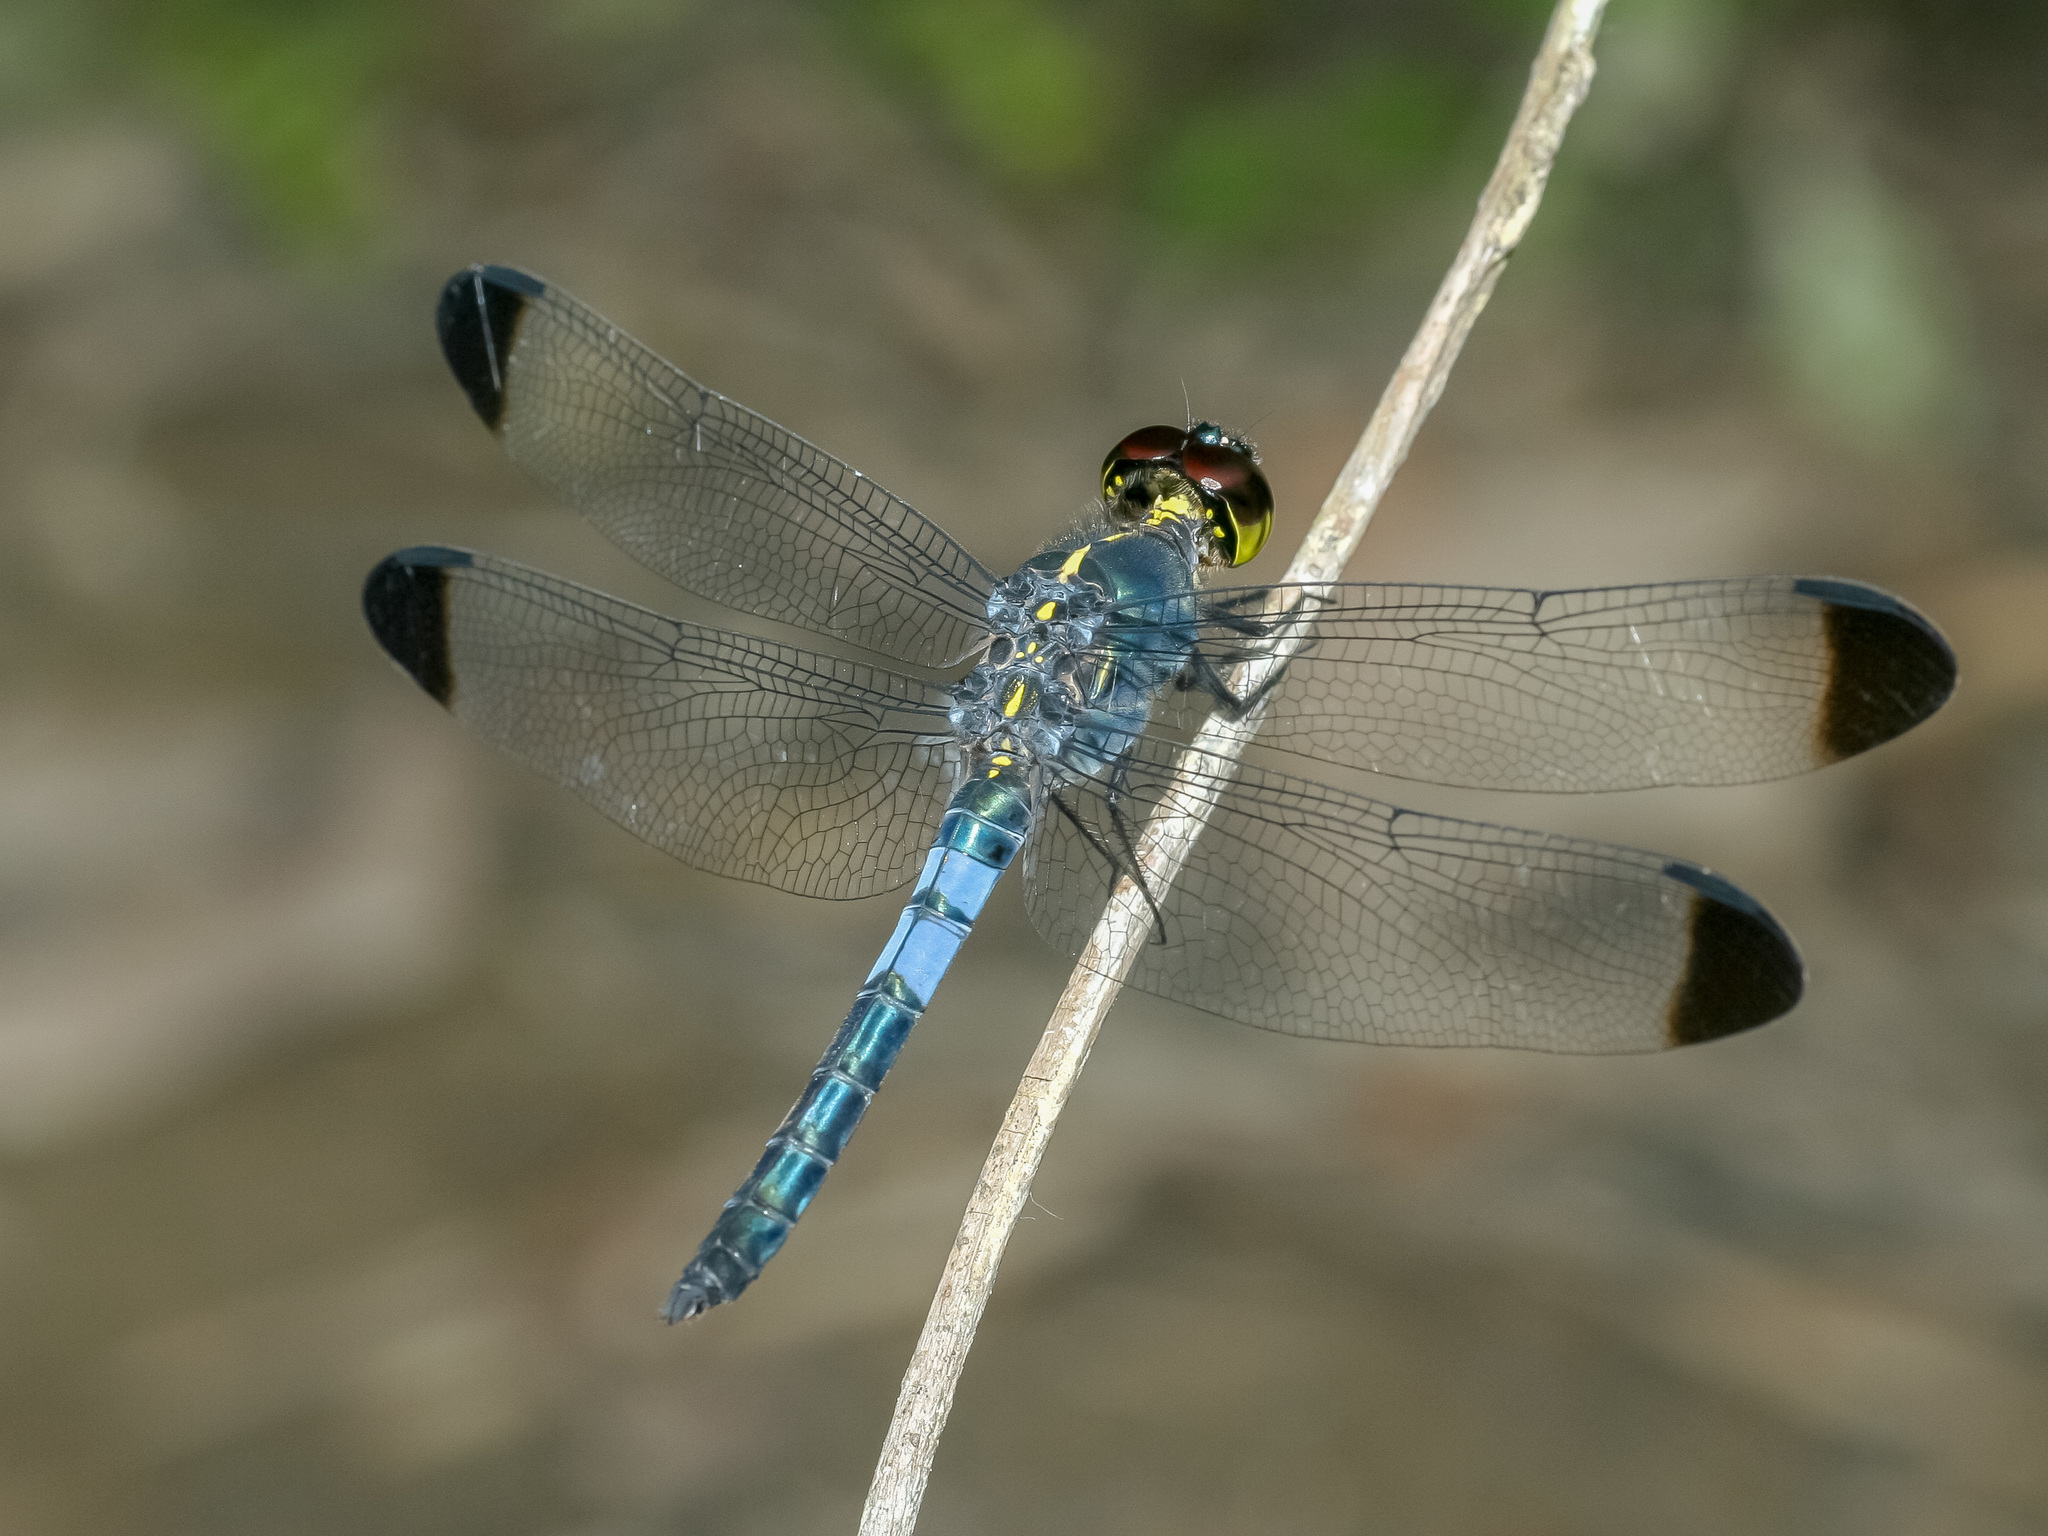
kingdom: Animalia
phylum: Arthropoda
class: Insecta
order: Odonata
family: Libellulidae
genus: Cratilla
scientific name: Cratilla metallica
